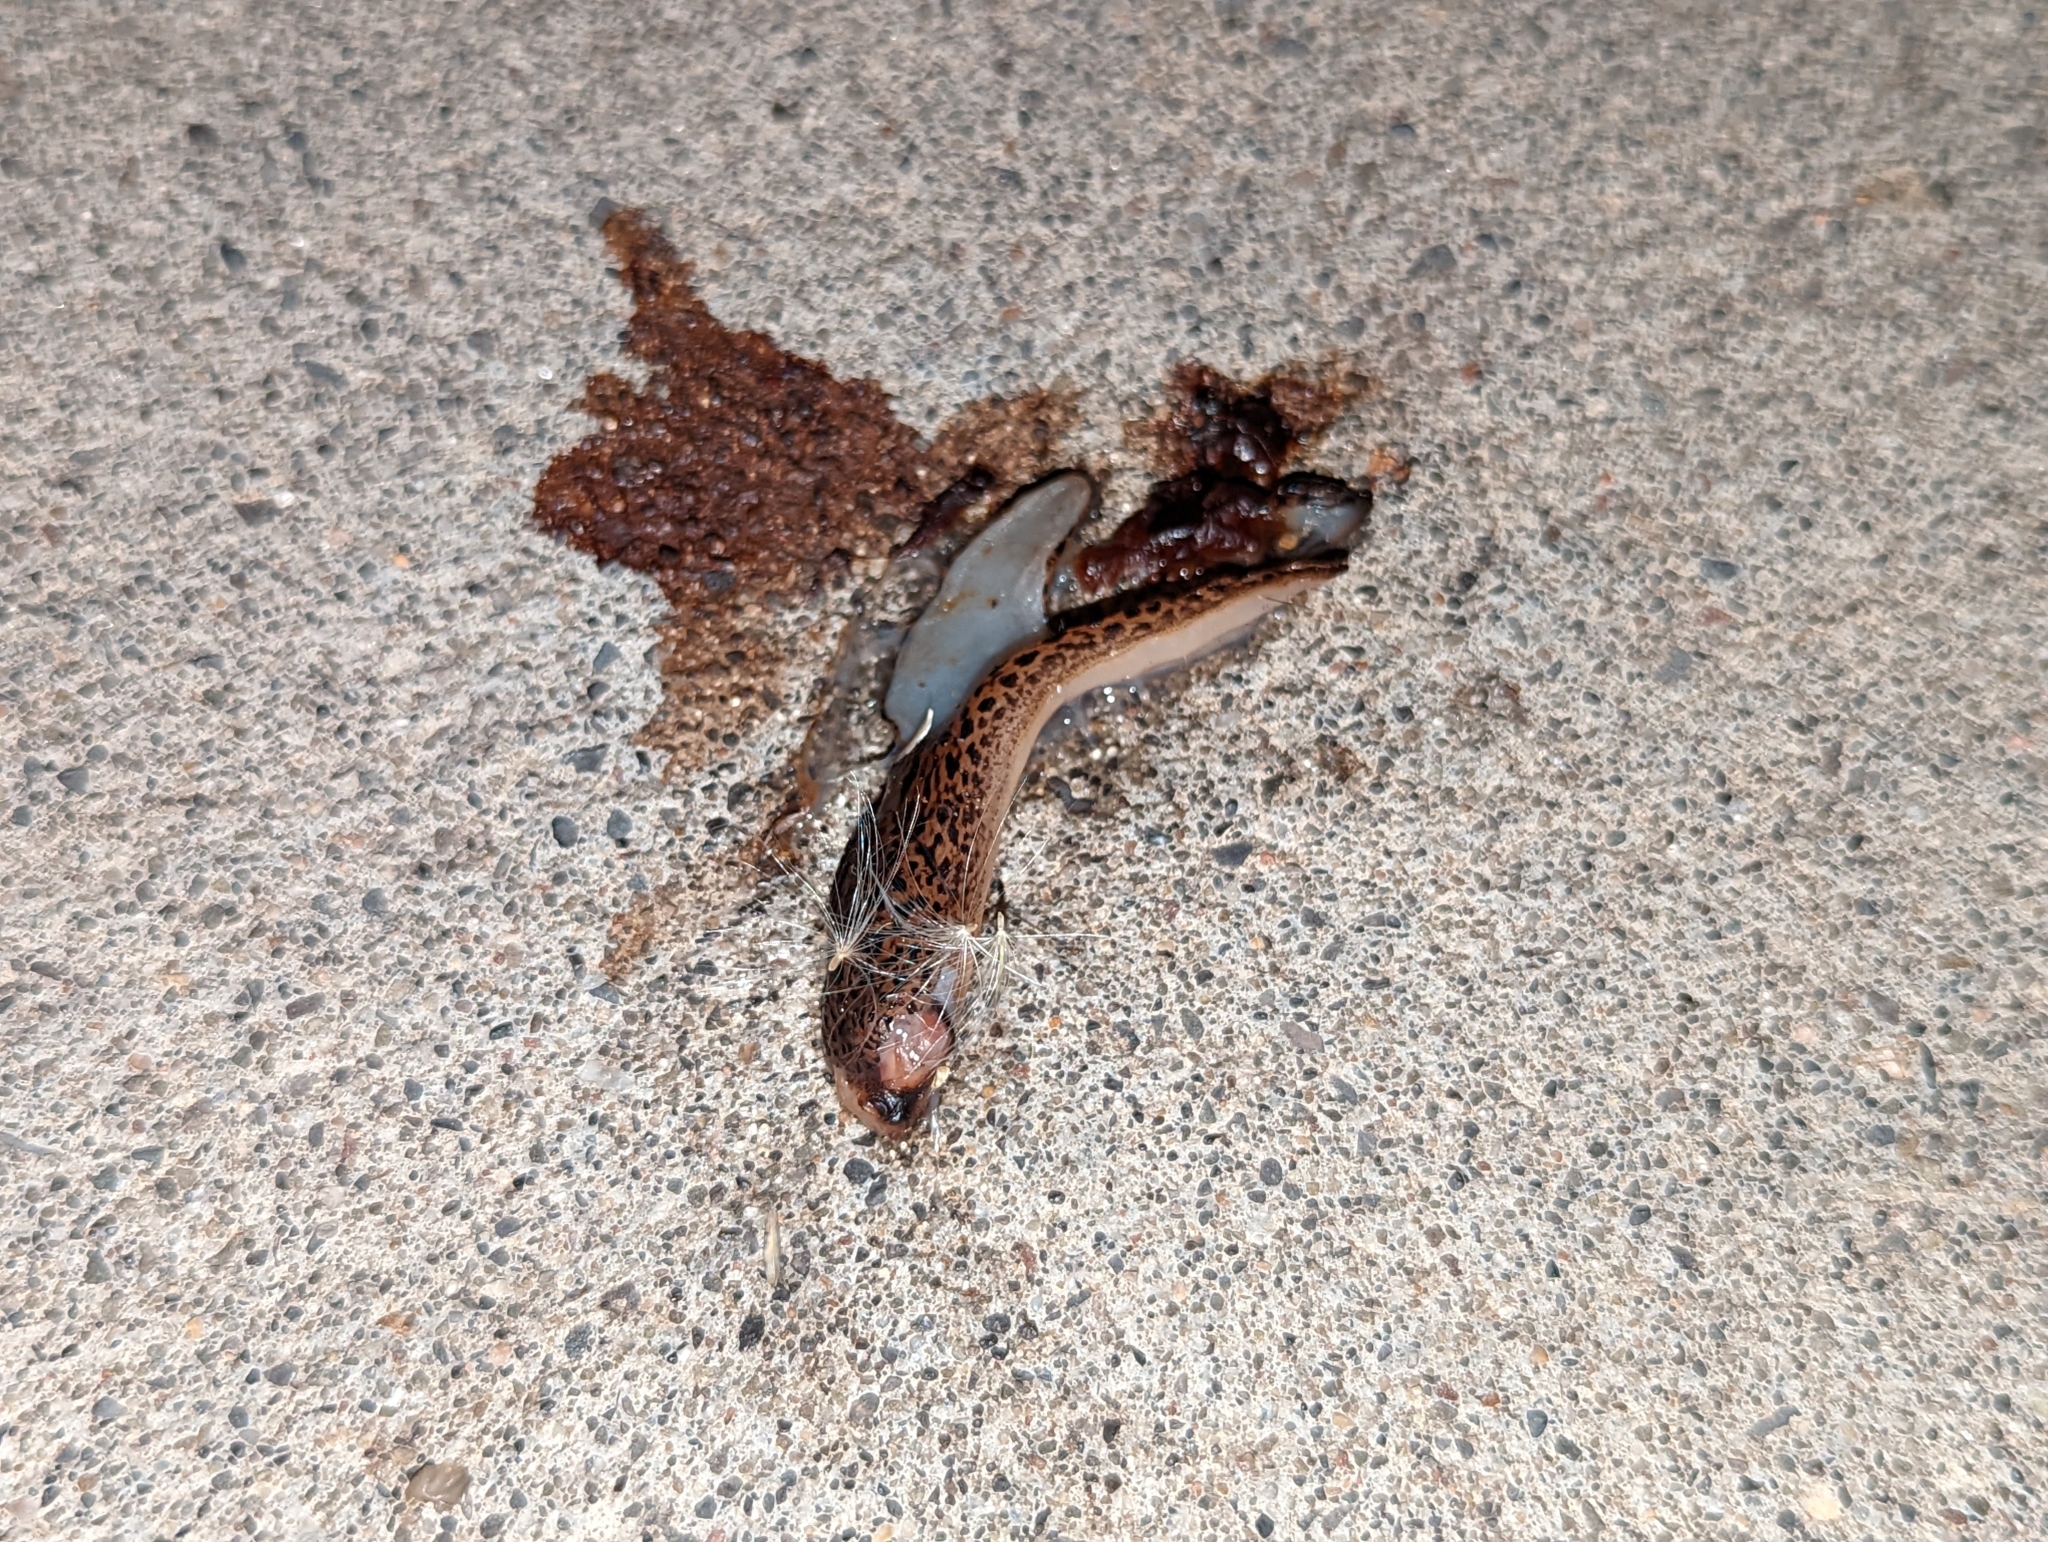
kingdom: Animalia
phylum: Mollusca
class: Gastropoda
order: Stylommatophora
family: Limacidae
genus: Limax
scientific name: Limax maximus
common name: Great grey slug
